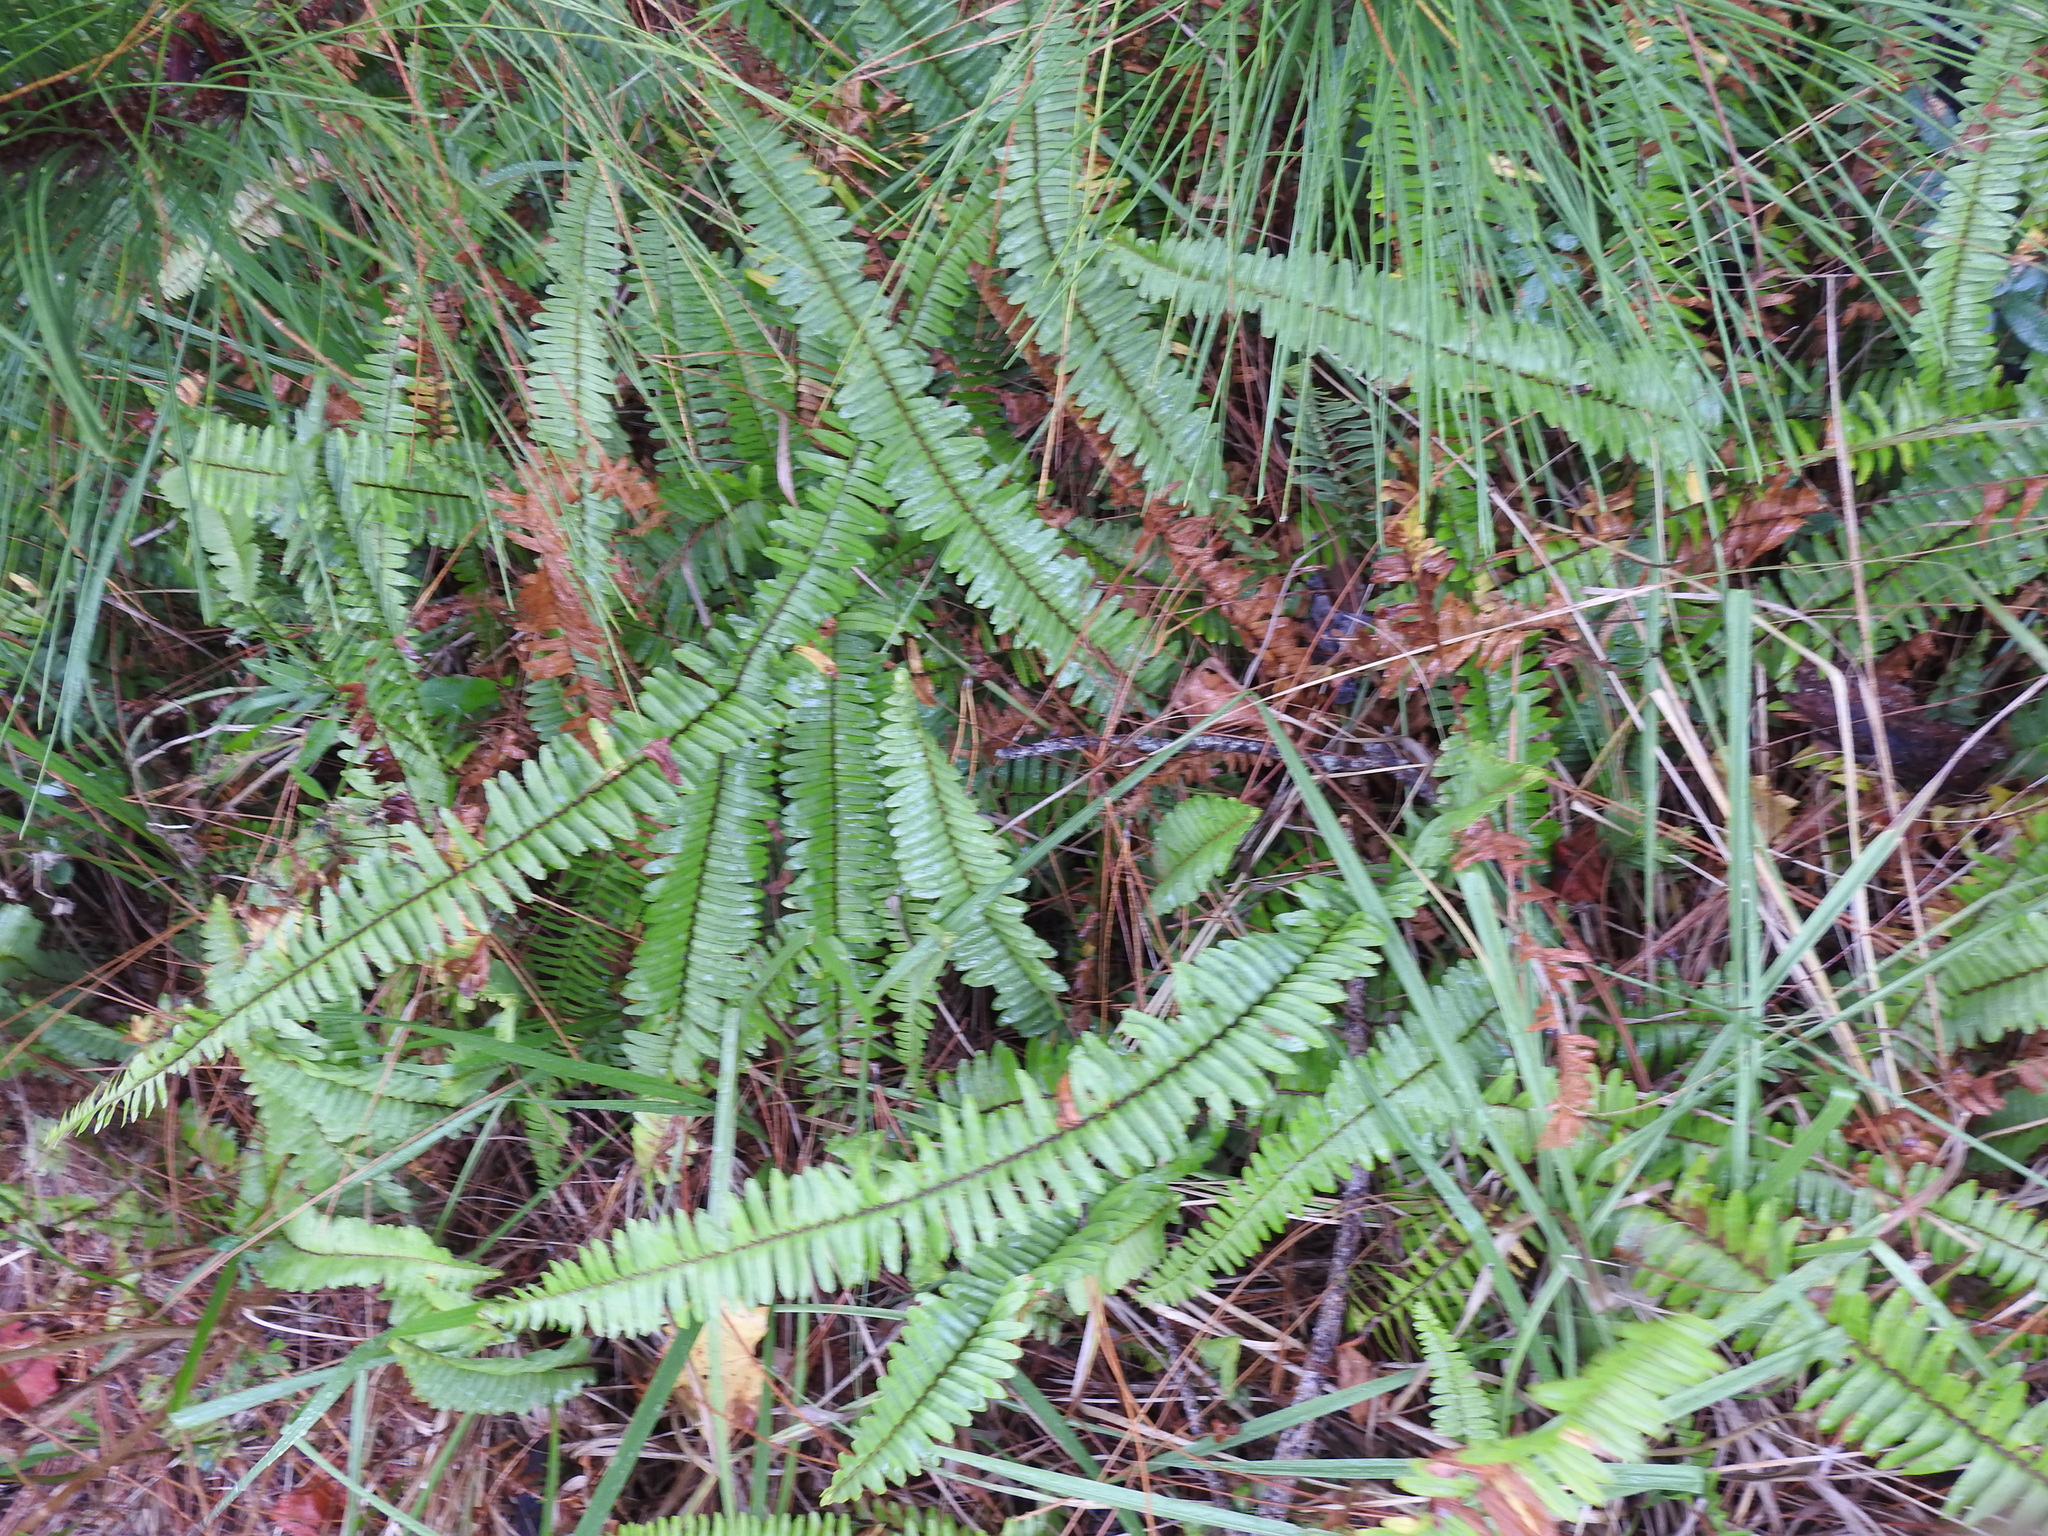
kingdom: Plantae
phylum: Tracheophyta
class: Polypodiopsida
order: Polypodiales
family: Nephrolepidaceae
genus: Nephrolepis
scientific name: Nephrolepis cordifolia
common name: Narrow swordfern
